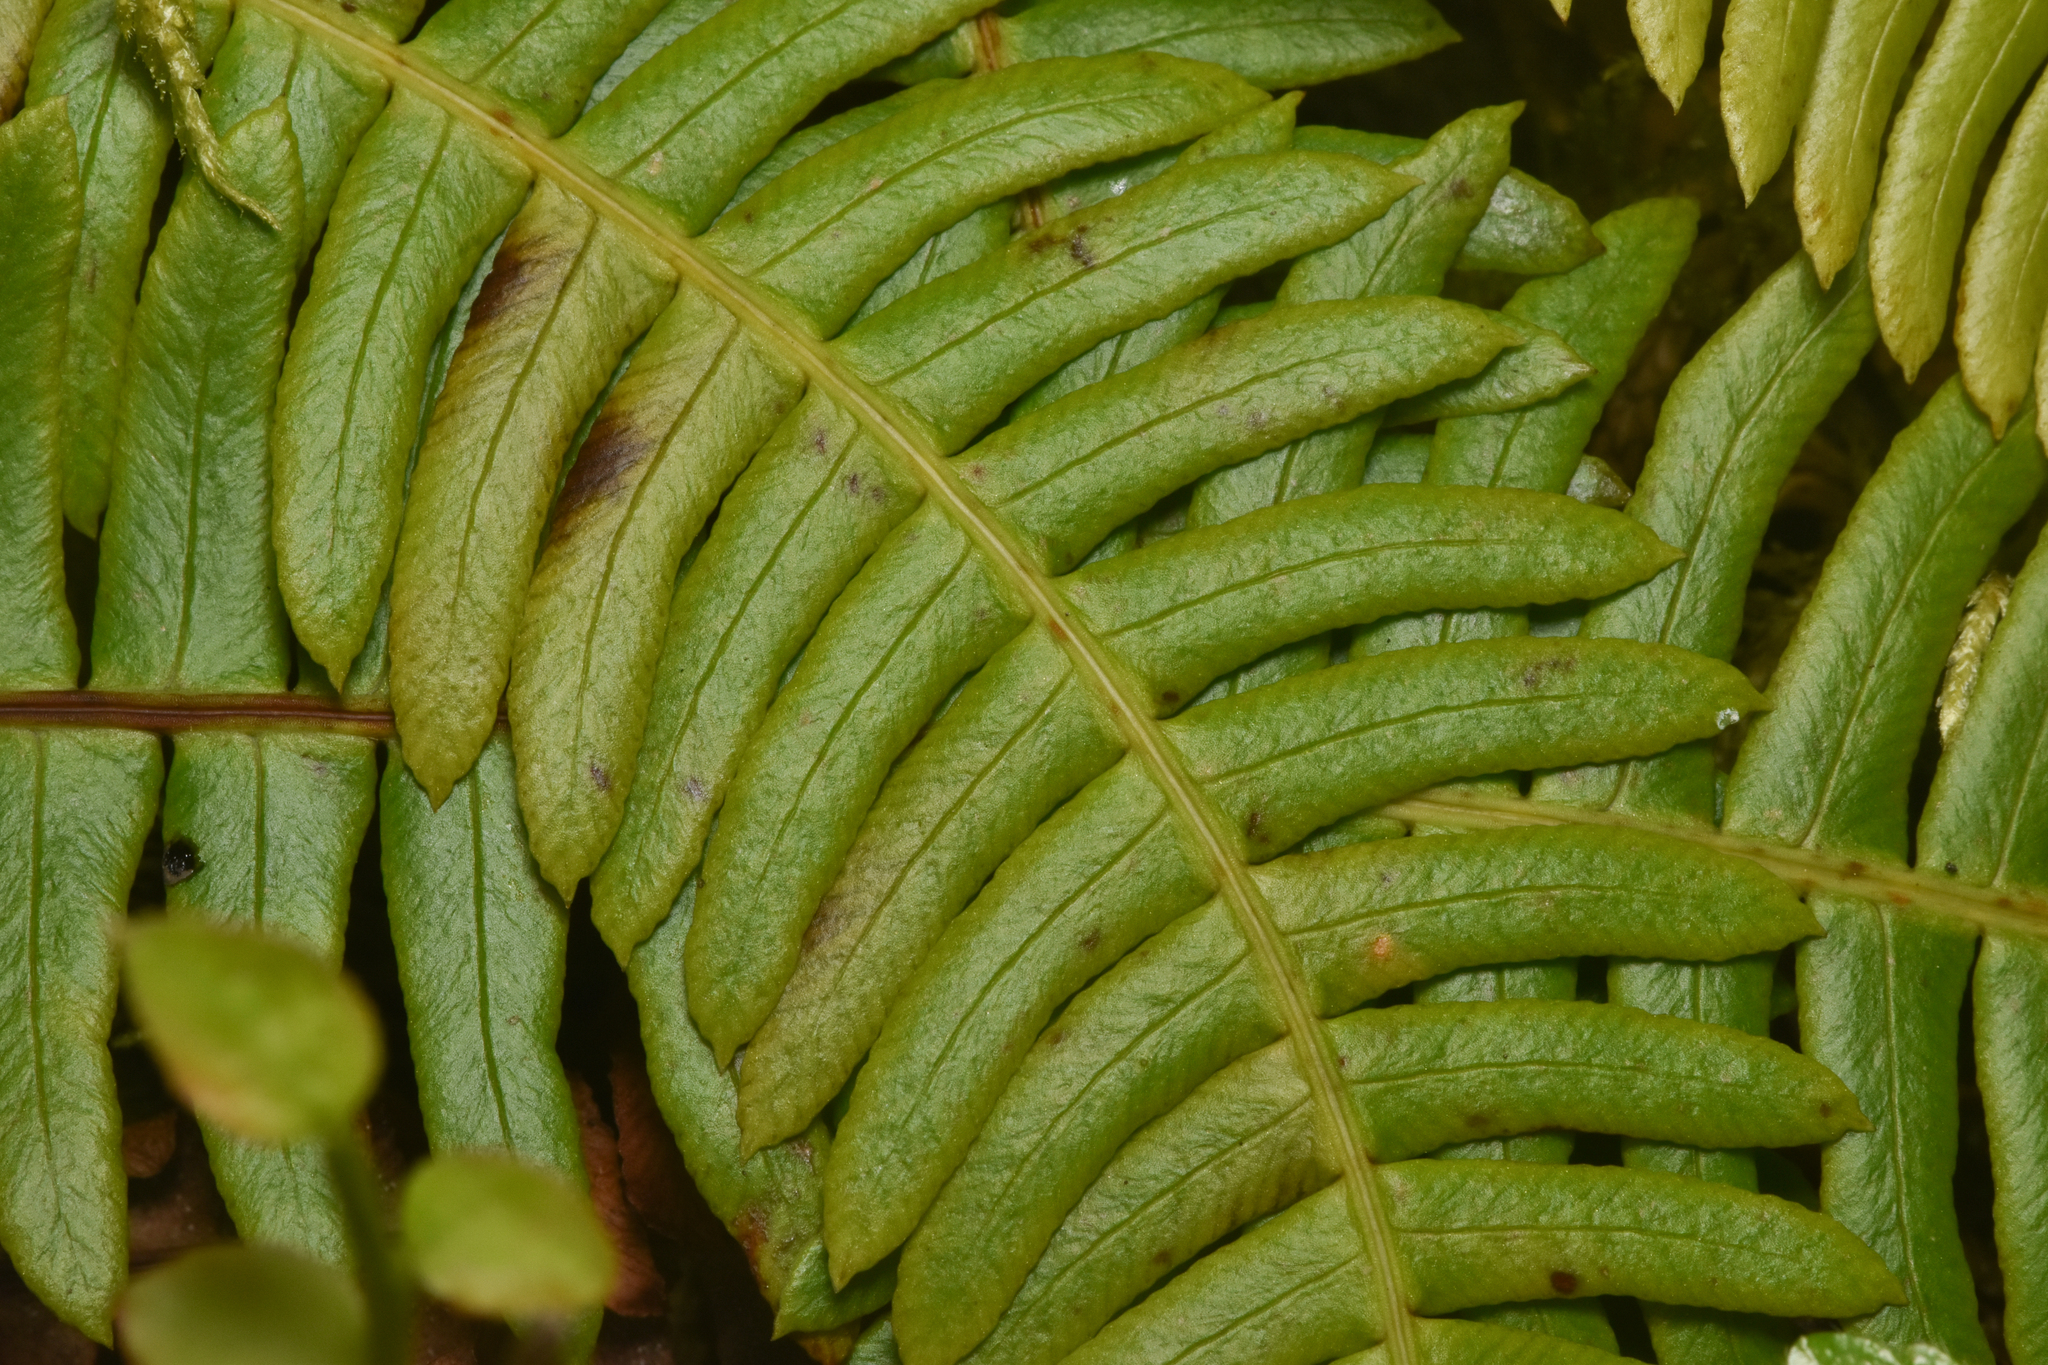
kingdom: Plantae
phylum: Tracheophyta
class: Polypodiopsida
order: Polypodiales
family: Blechnaceae
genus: Struthiopteris
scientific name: Struthiopteris spicant
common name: Deer fern
